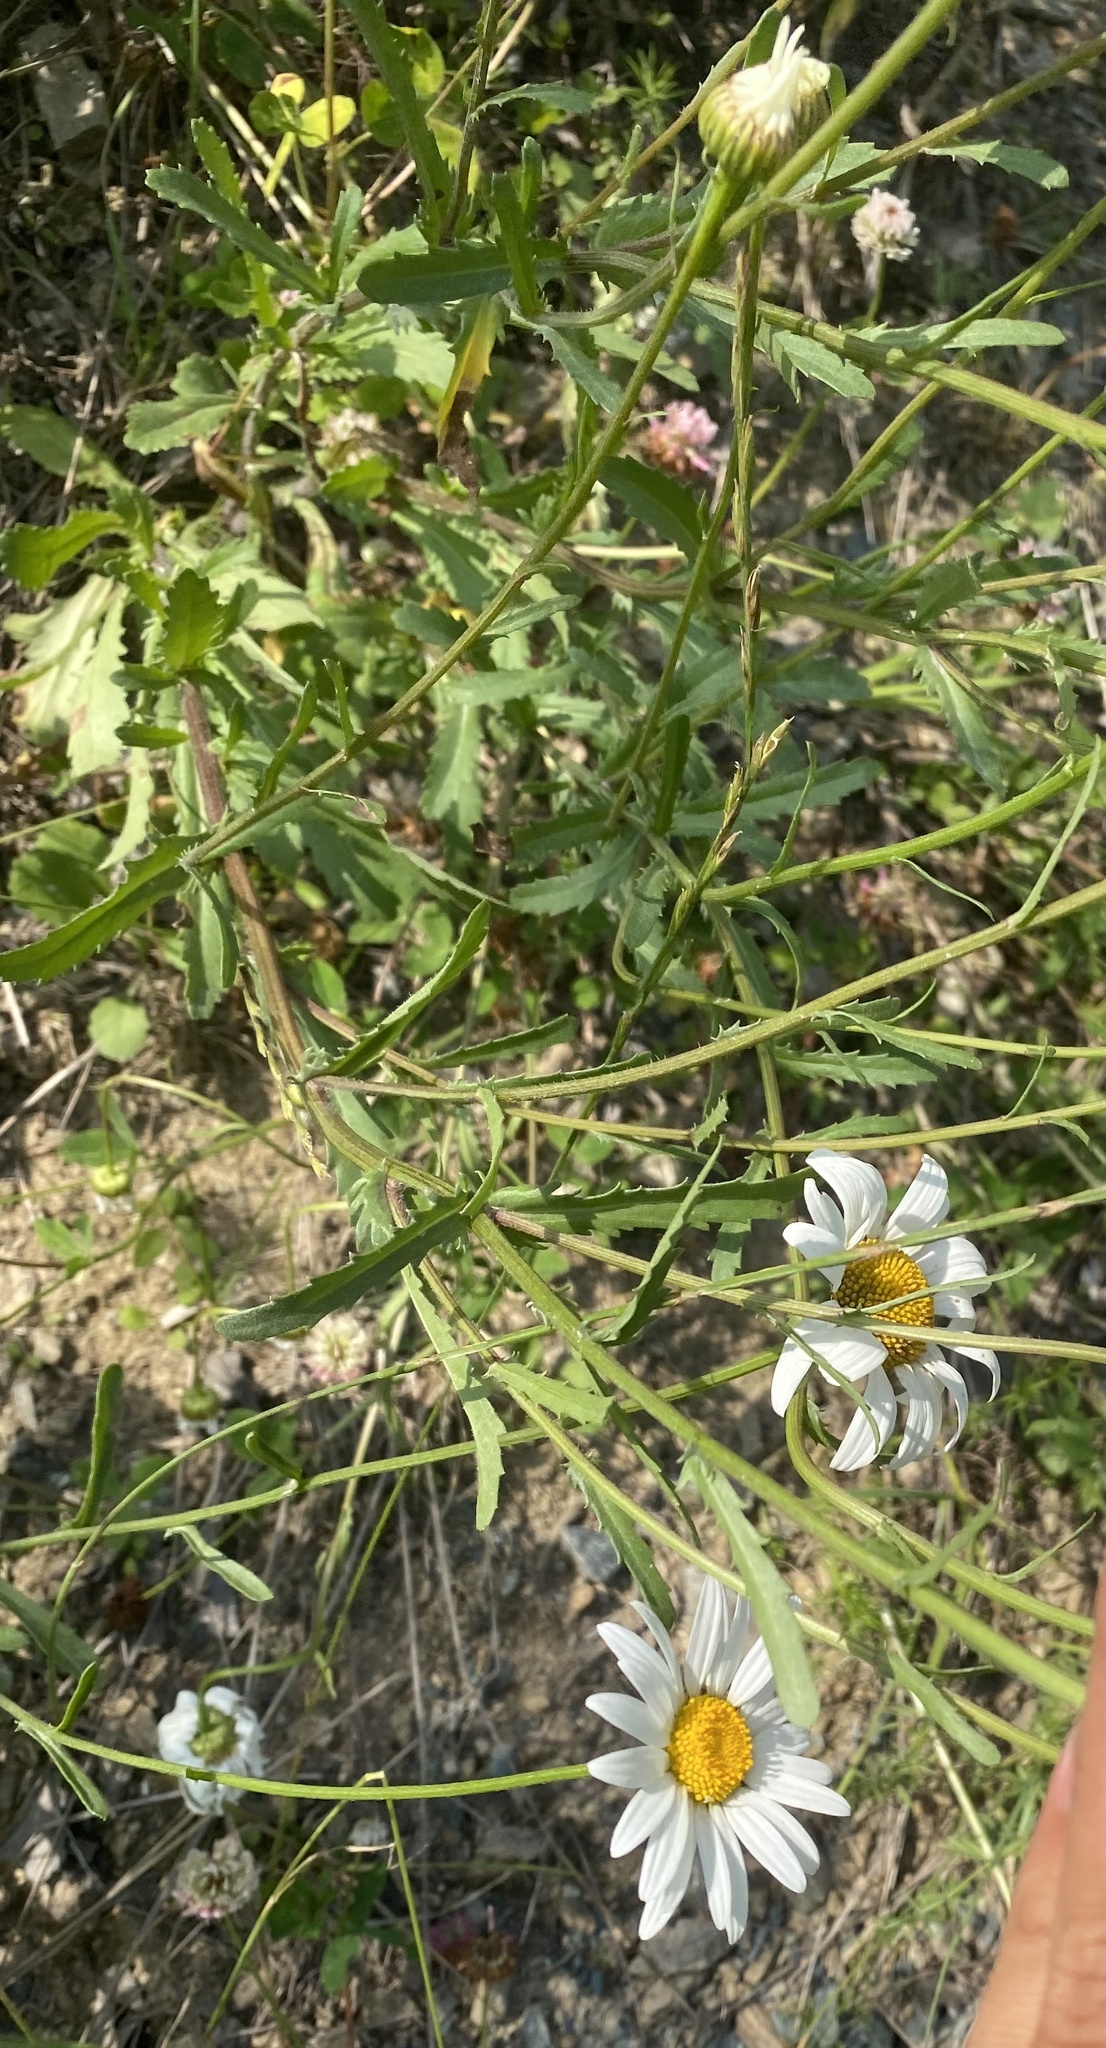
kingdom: Plantae
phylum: Tracheophyta
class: Magnoliopsida
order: Asterales
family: Asteraceae
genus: Leucanthemum
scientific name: Leucanthemum vulgare
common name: Oxeye daisy
